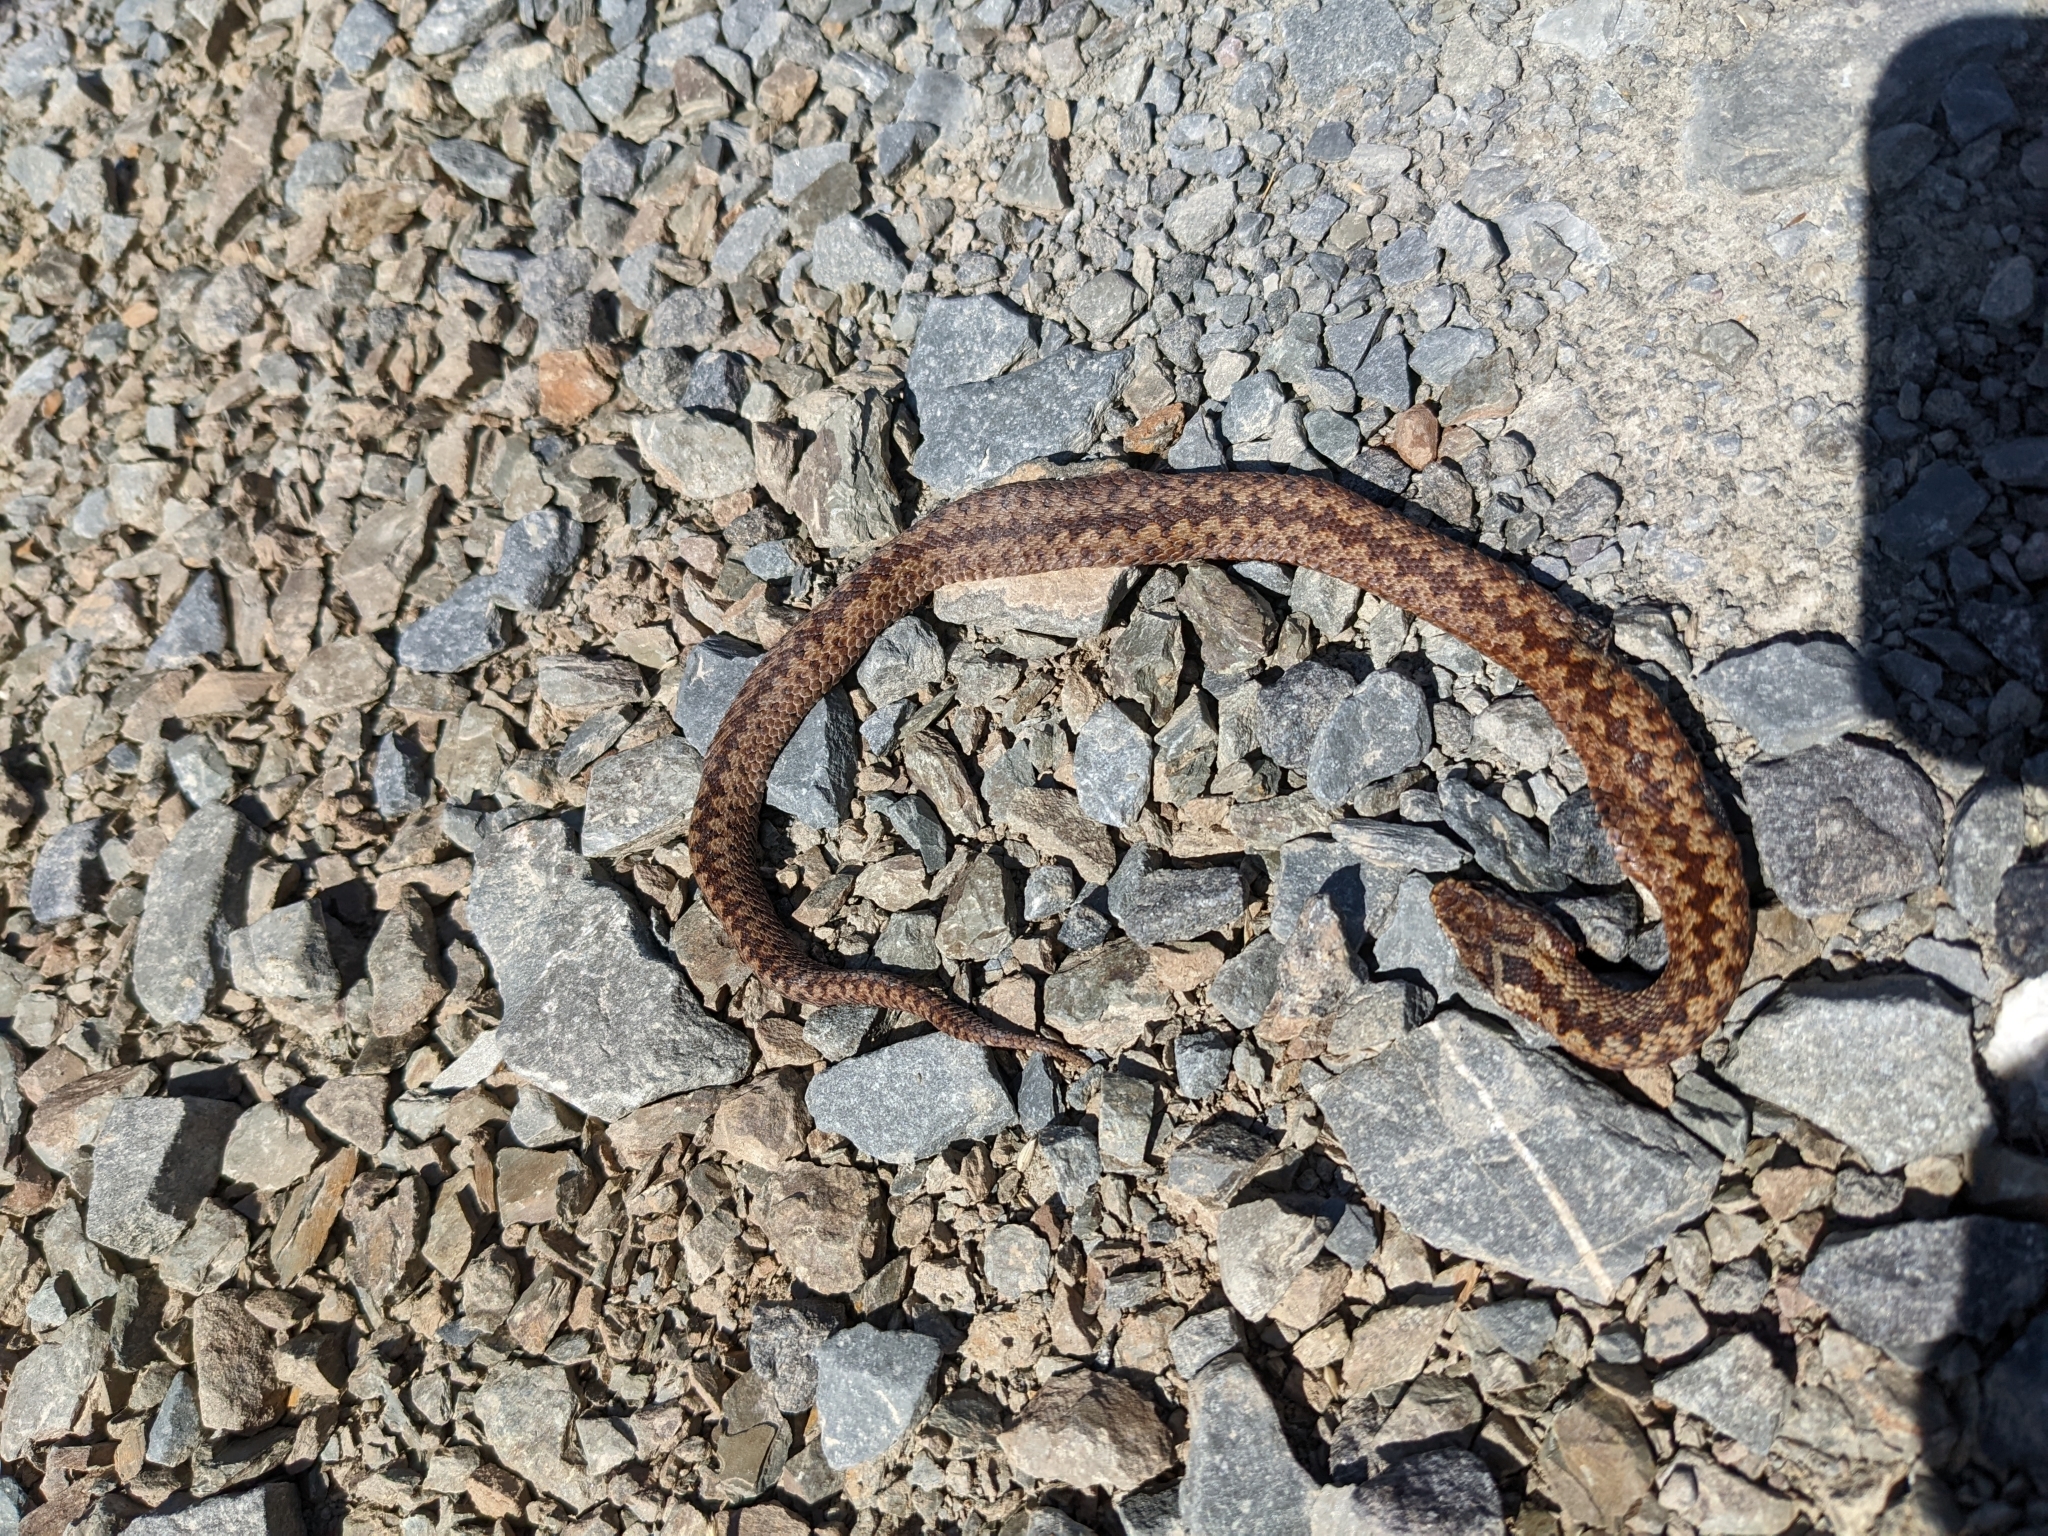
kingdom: Animalia
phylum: Chordata
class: Squamata
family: Viperidae
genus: Vipera
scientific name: Vipera berus
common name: Adder
